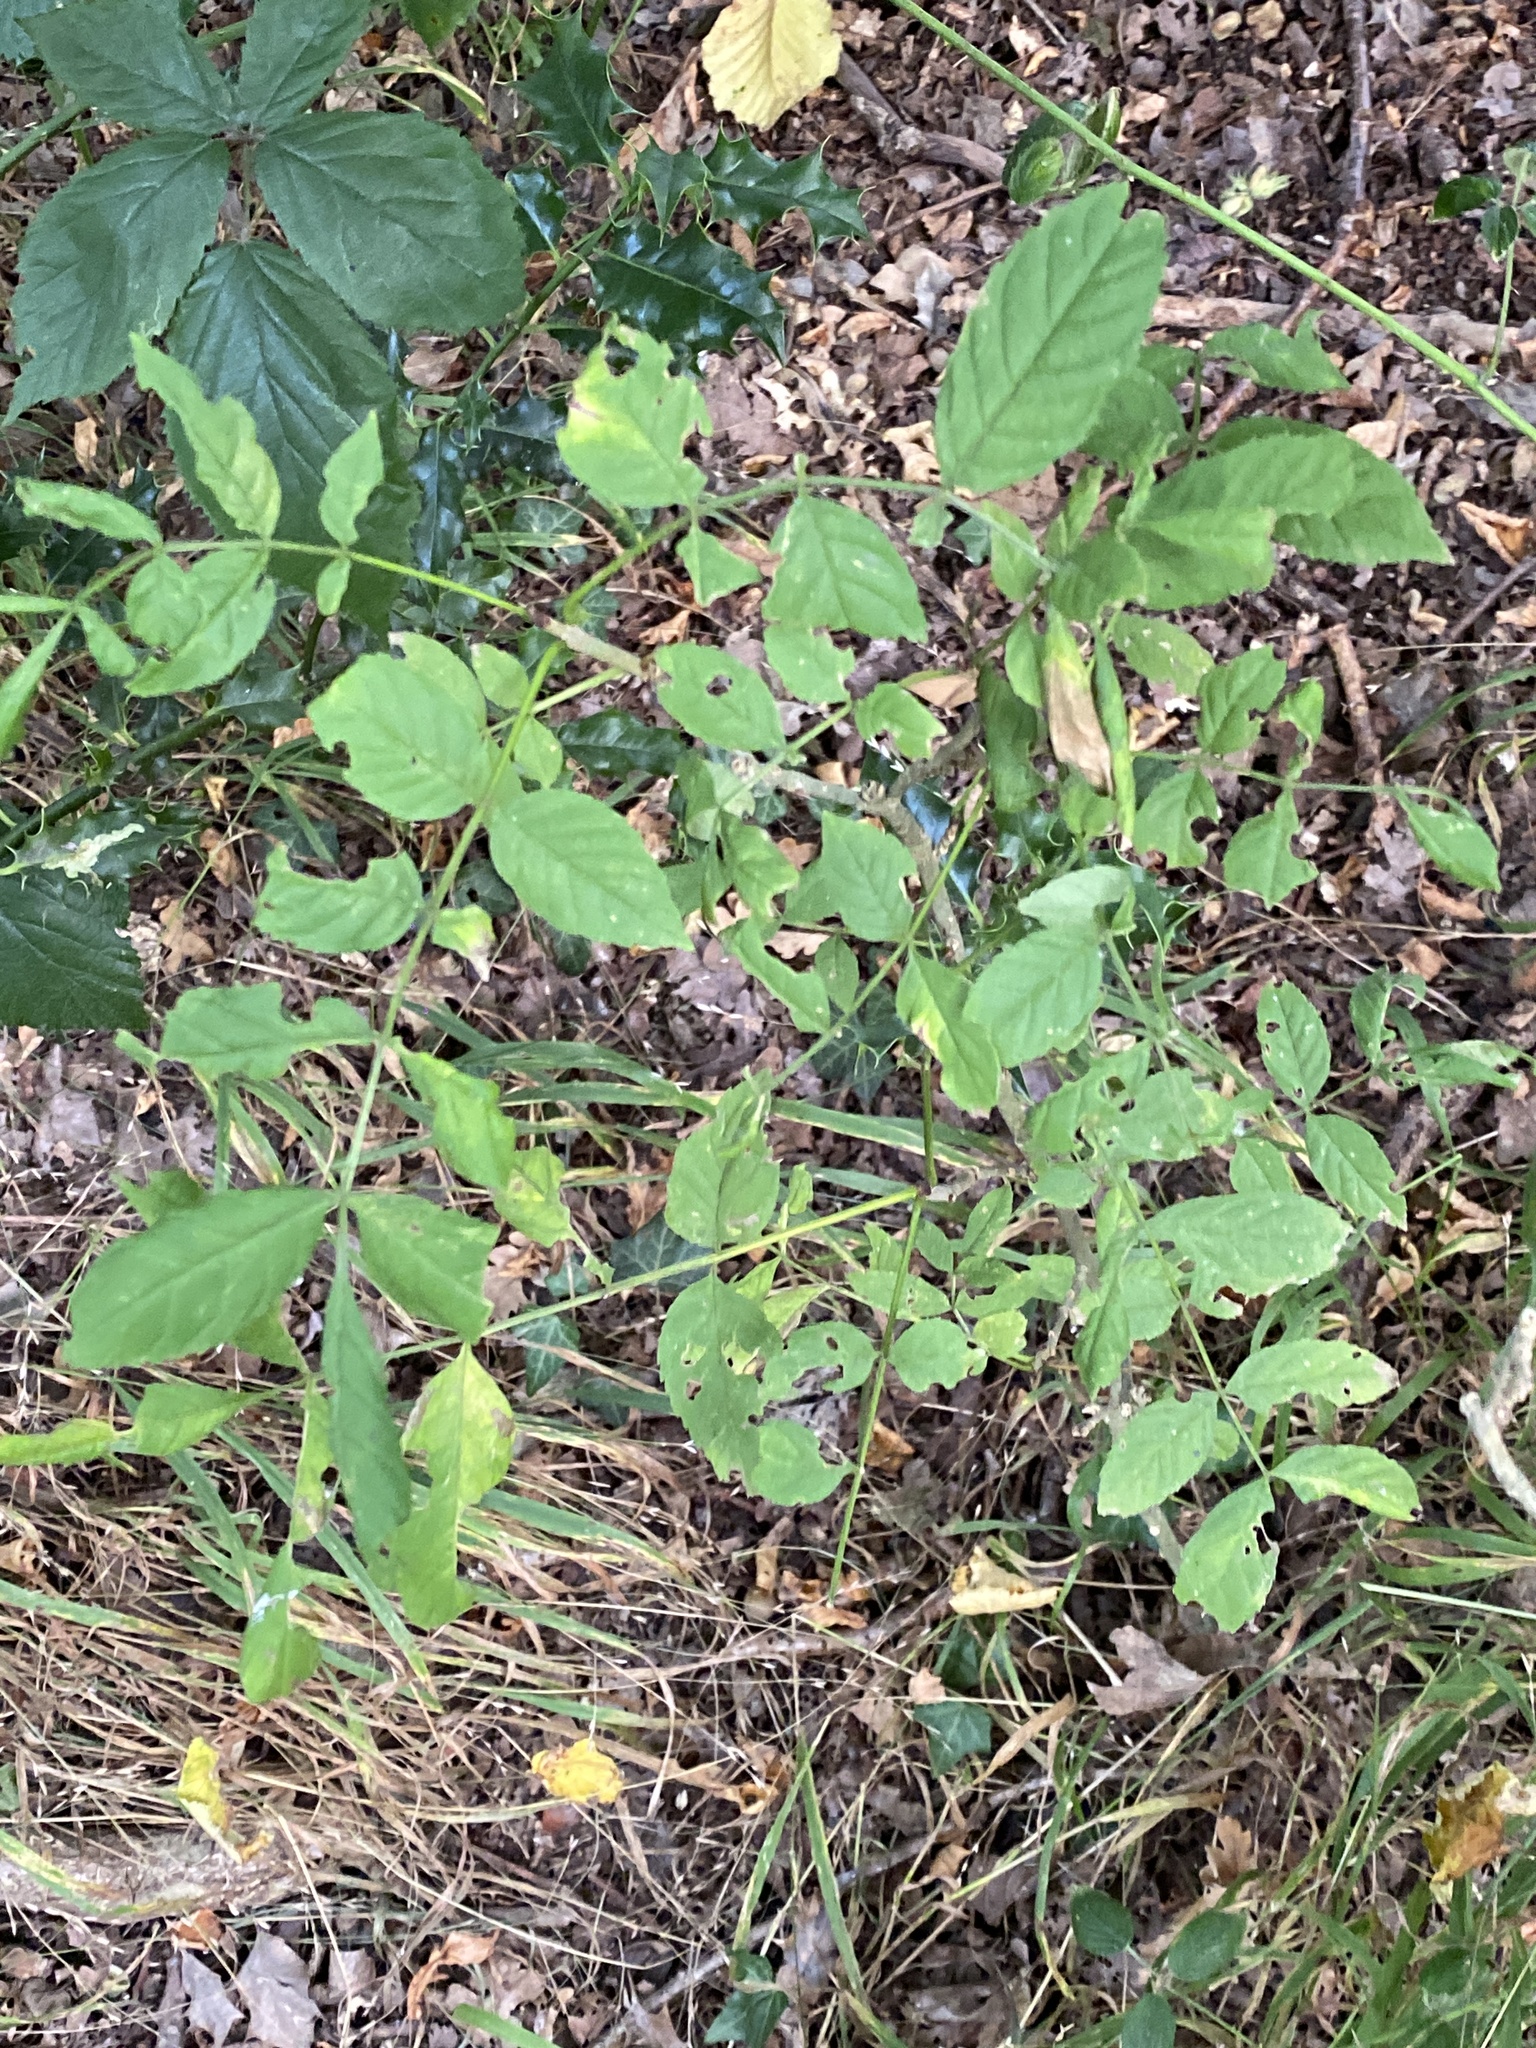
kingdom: Plantae
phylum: Tracheophyta
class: Magnoliopsida
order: Lamiales
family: Oleaceae
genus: Fraxinus
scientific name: Fraxinus excelsior
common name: European ash
